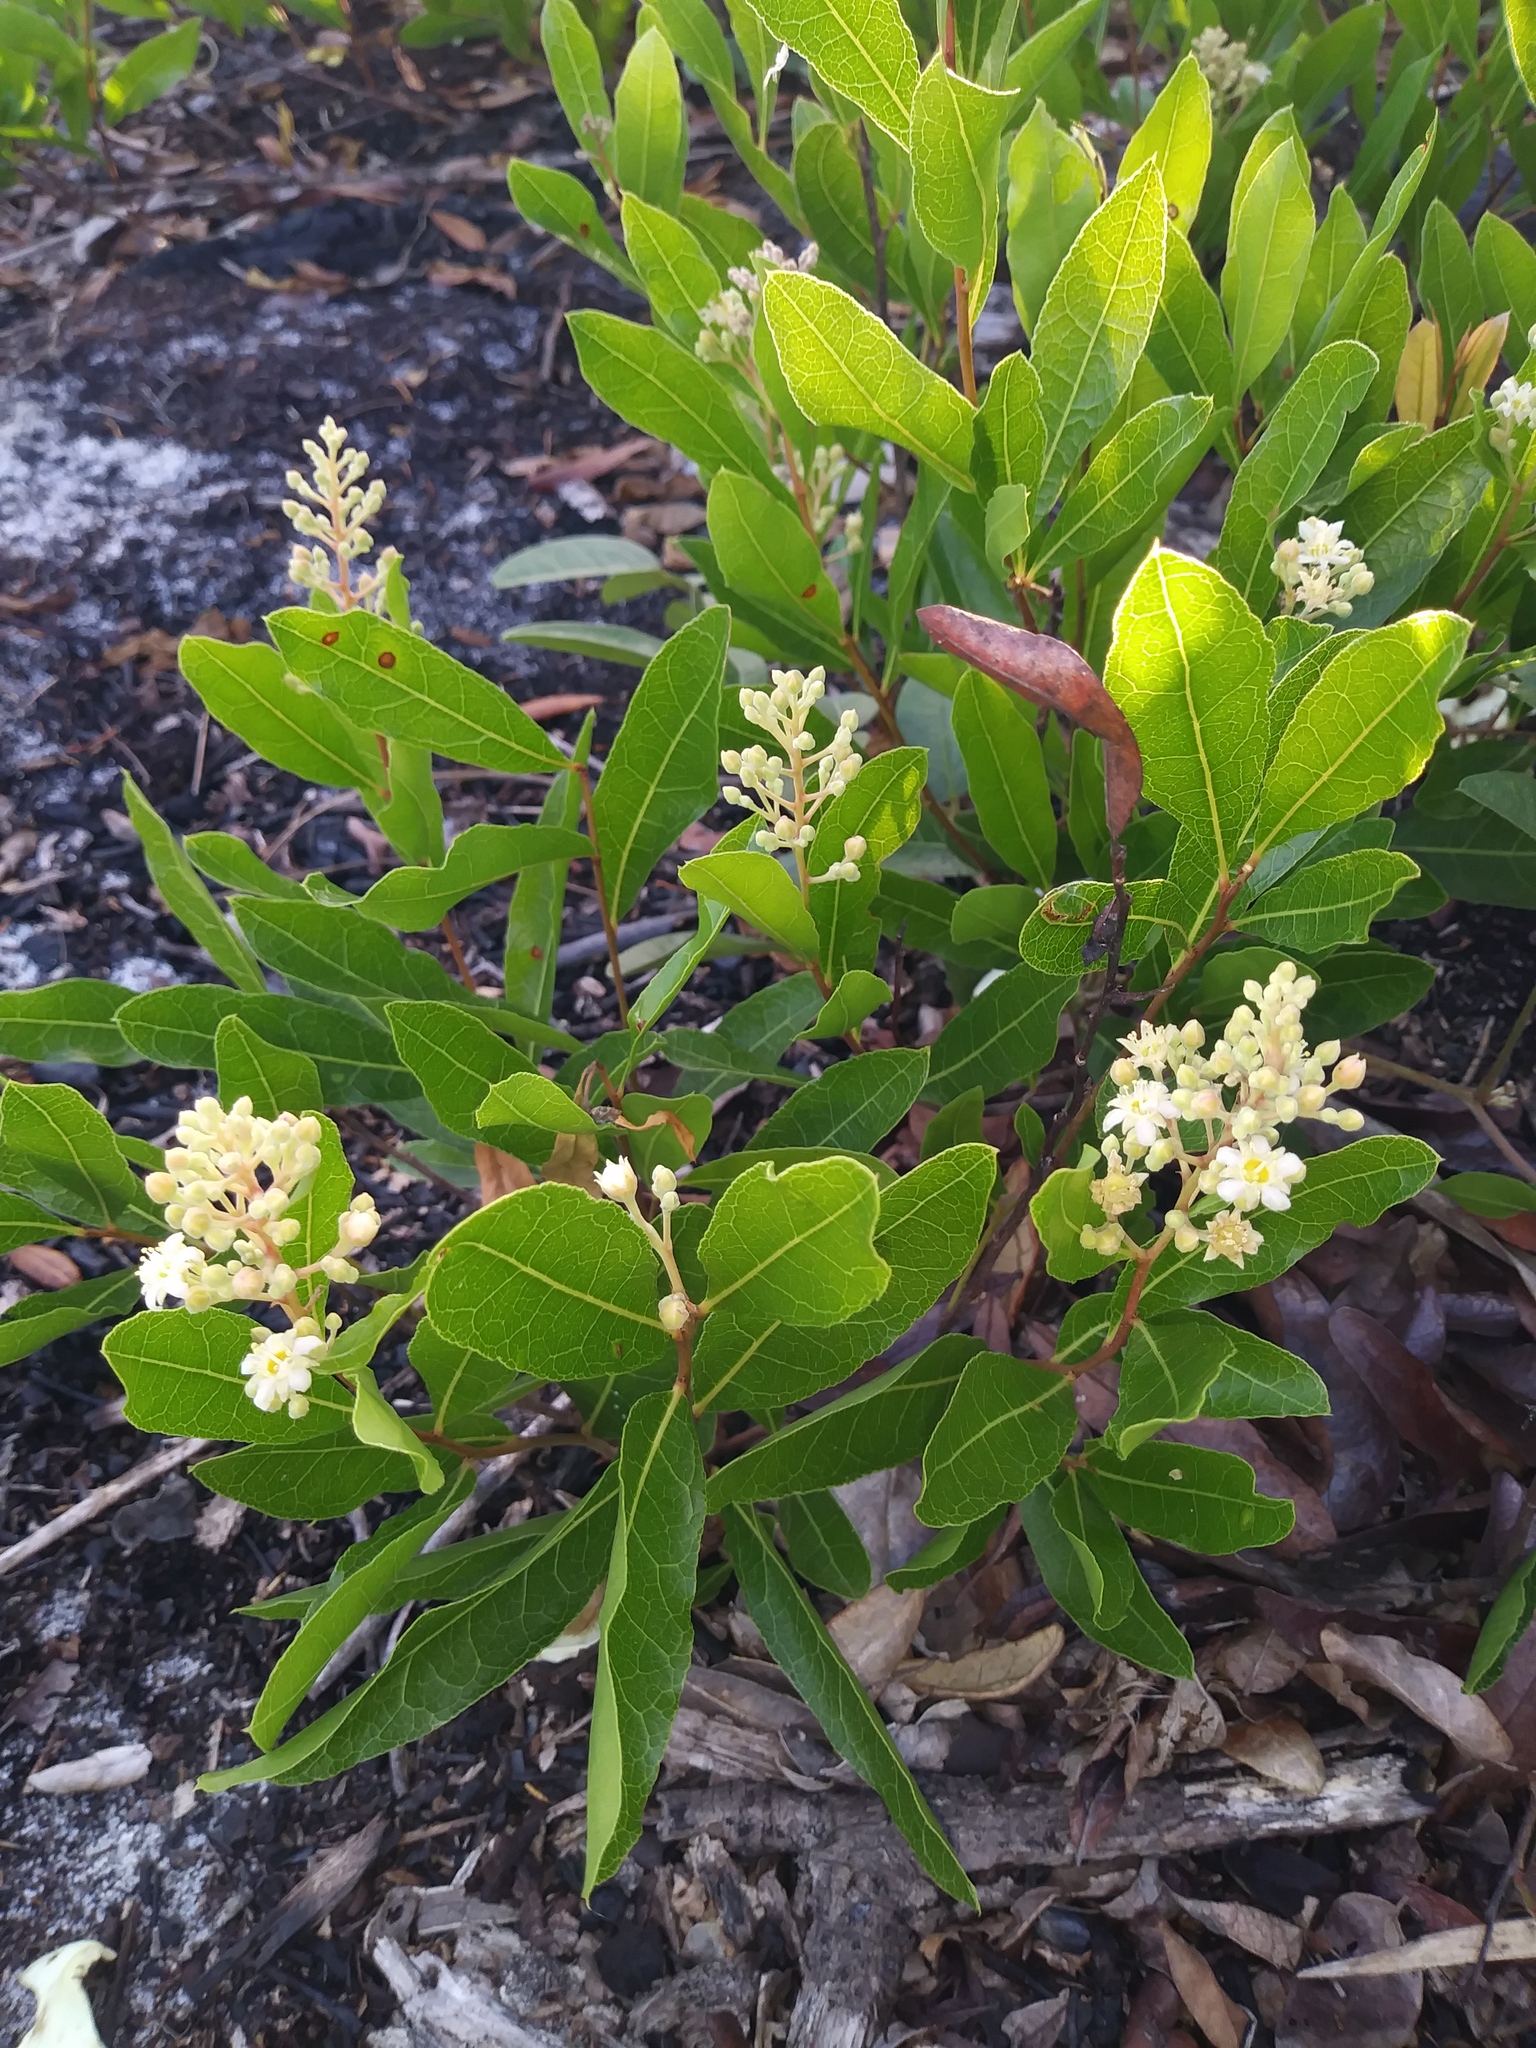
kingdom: Plantae
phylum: Tracheophyta
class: Magnoliopsida
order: Malpighiales
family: Chrysobalanaceae
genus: Geobalanus
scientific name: Geobalanus oblongifolius
